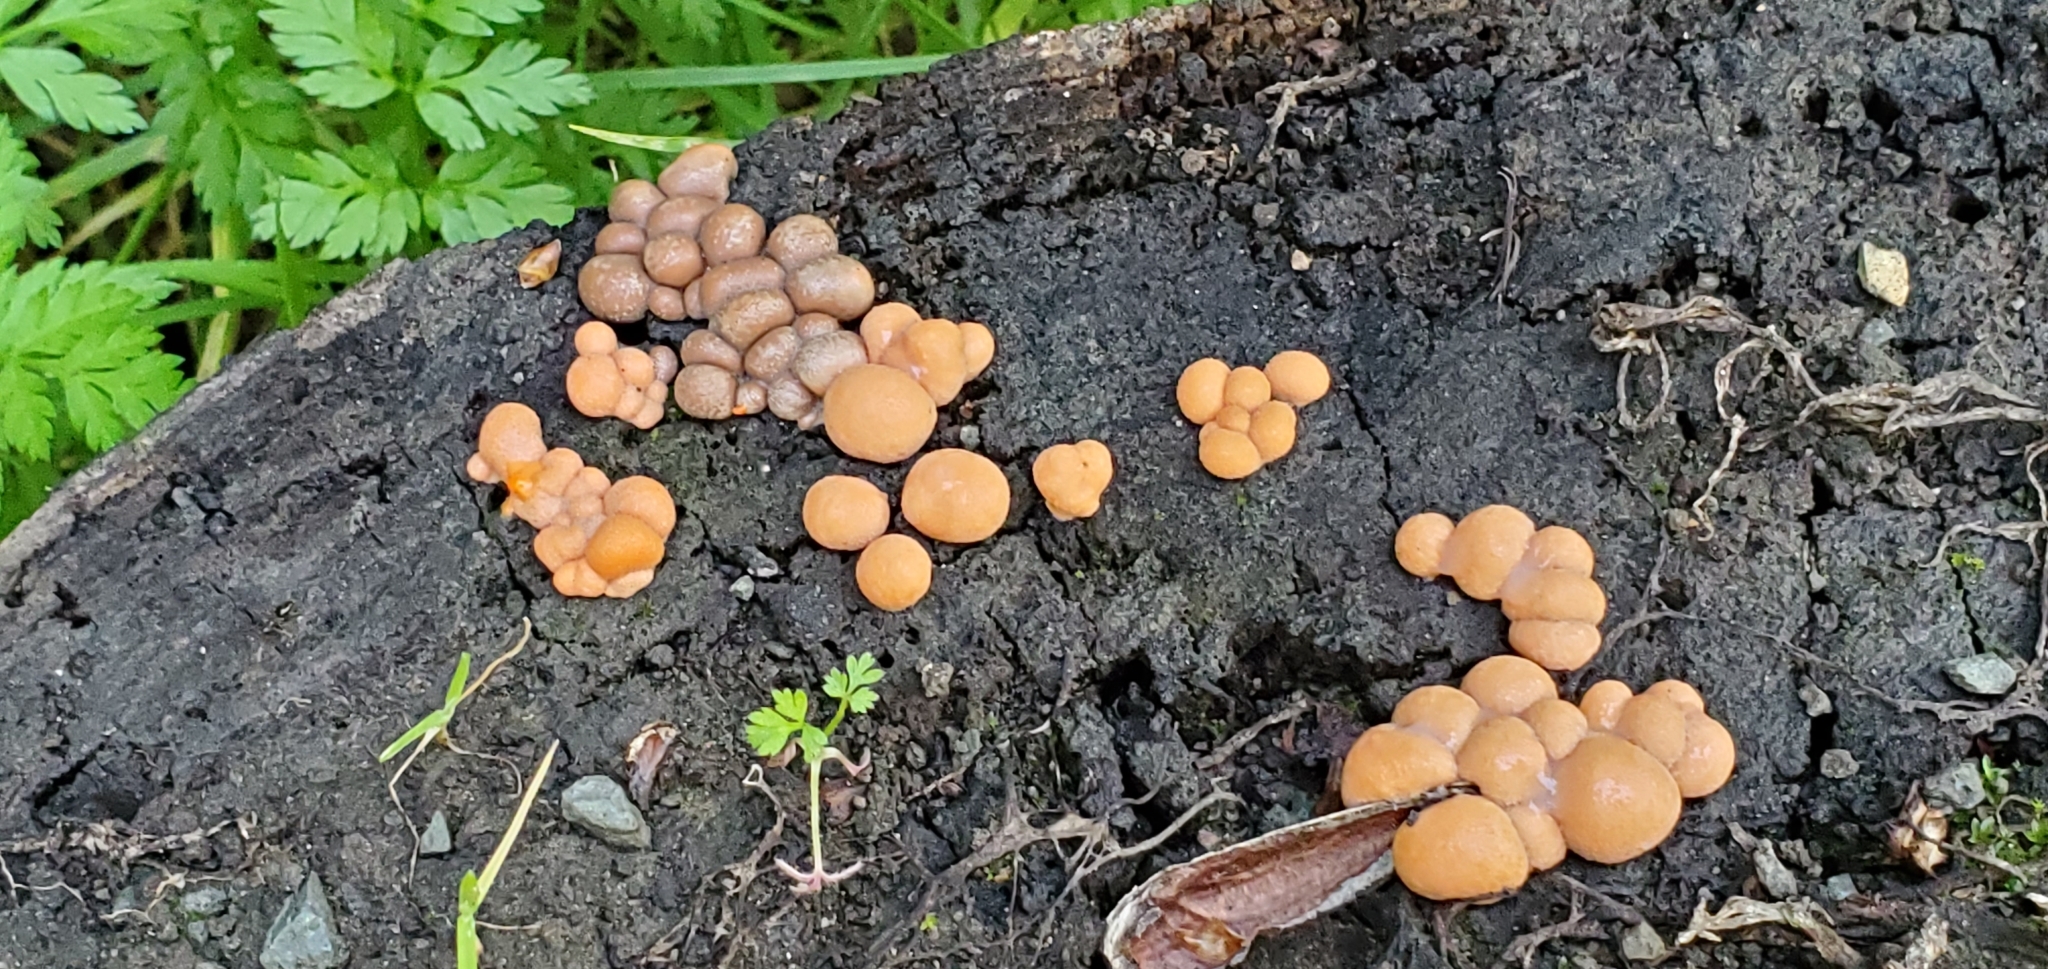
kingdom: Protozoa
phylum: Mycetozoa
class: Myxomycetes
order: Cribrariales
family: Tubiferaceae
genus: Lycogala
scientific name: Lycogala epidendrum
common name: Wolf's milk
